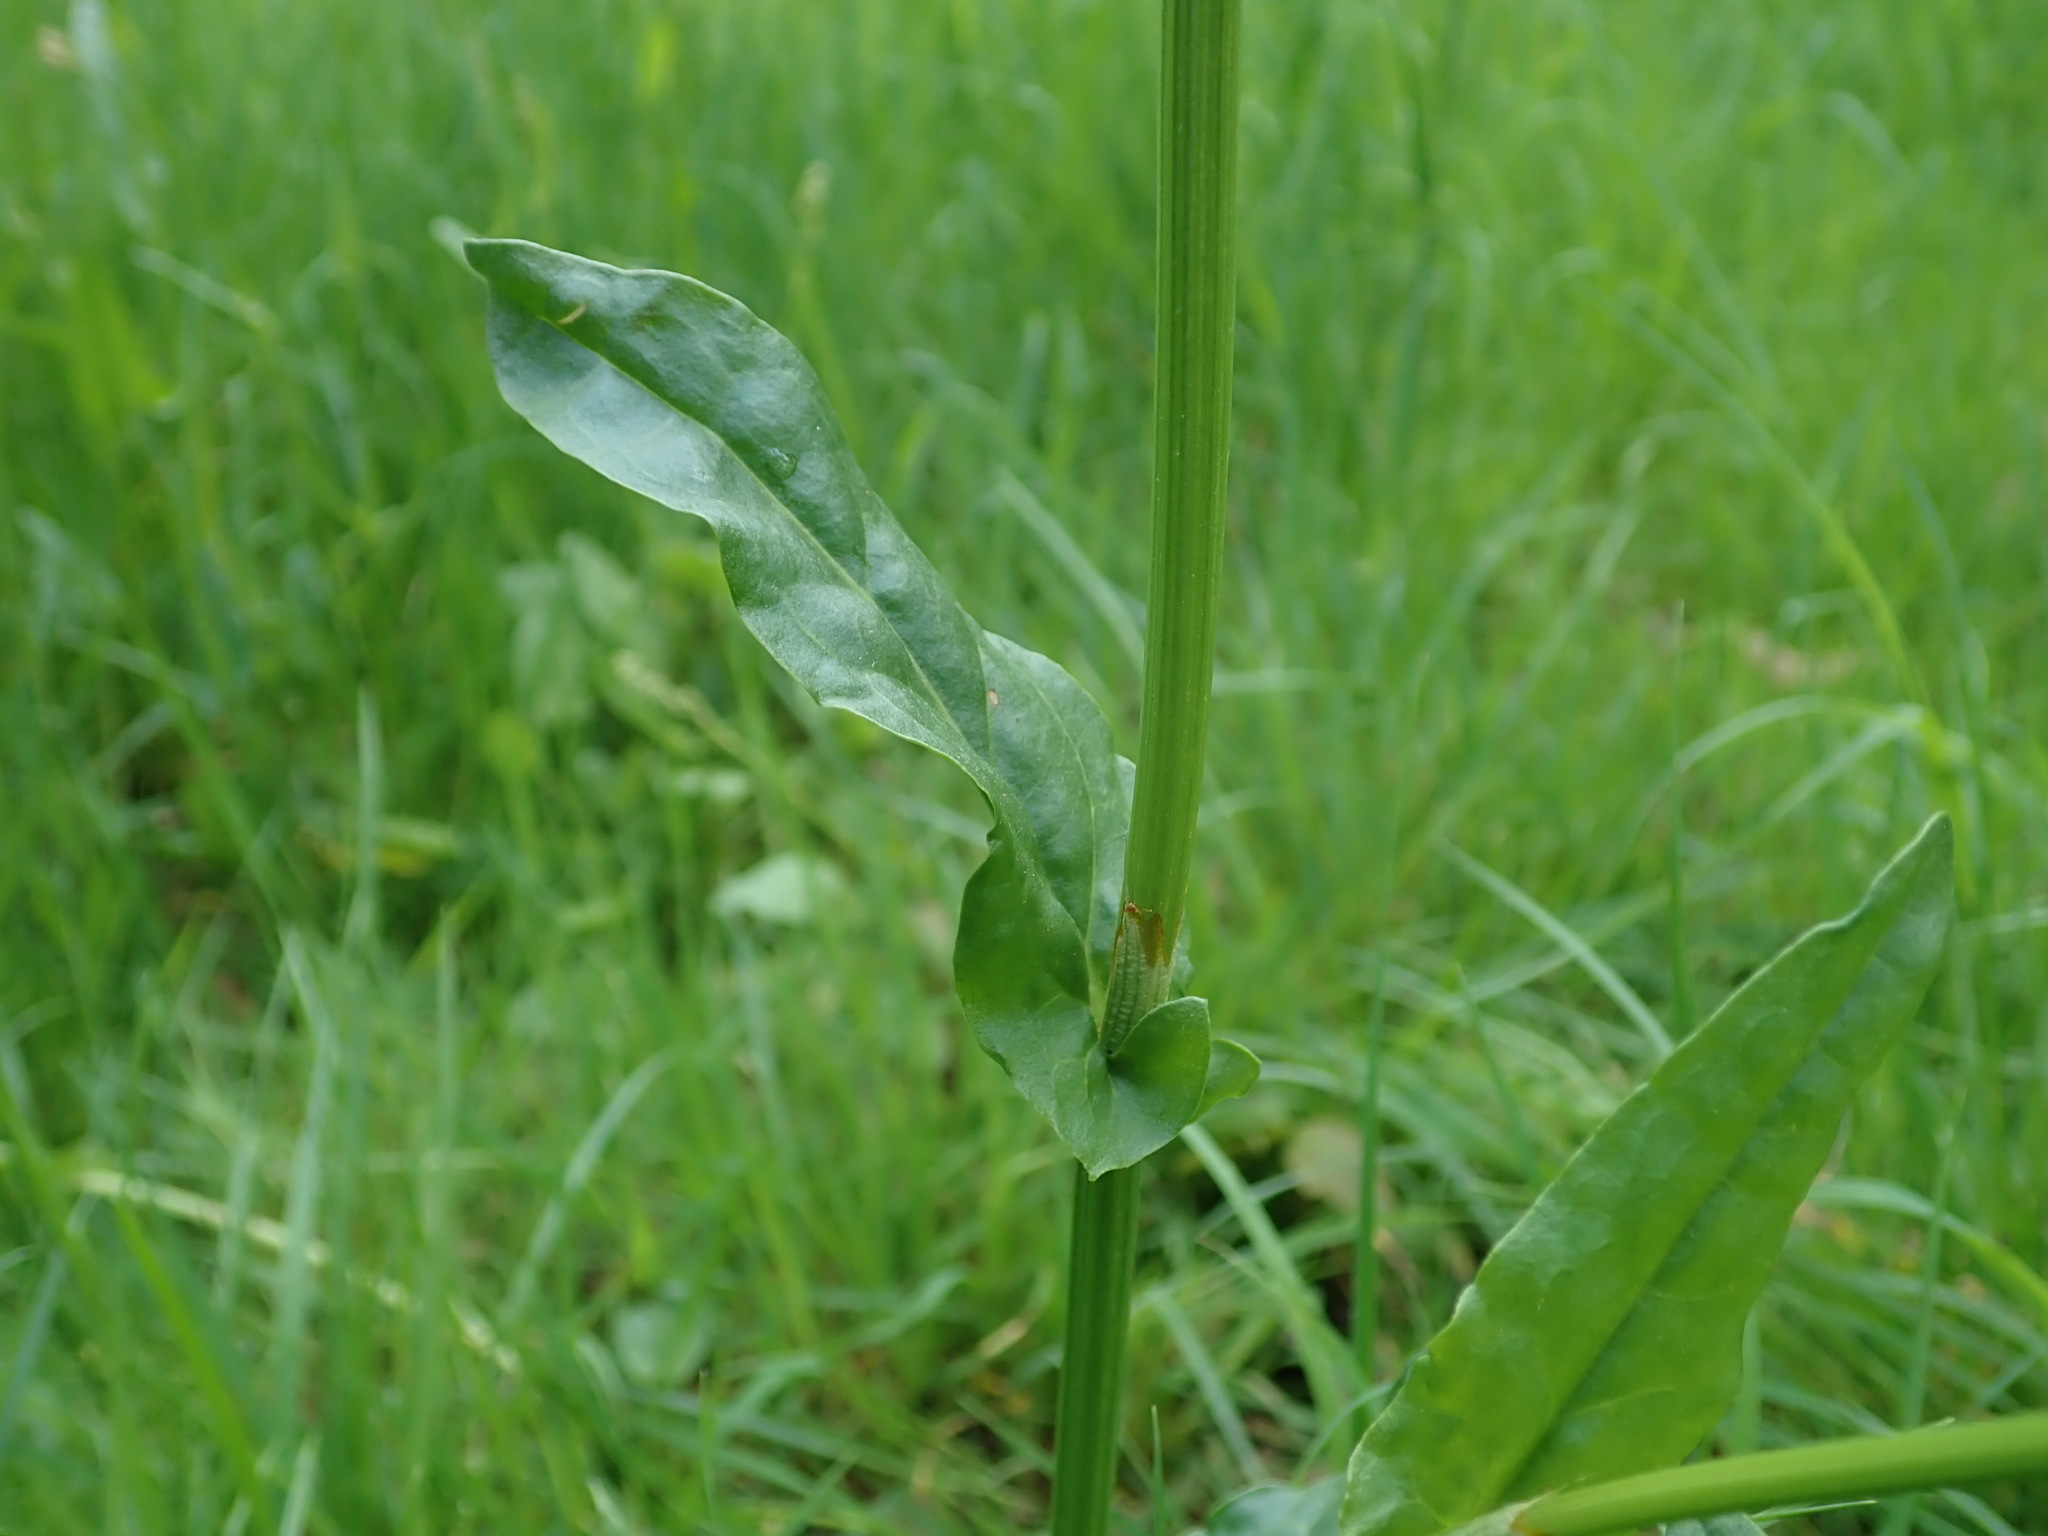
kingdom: Plantae
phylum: Tracheophyta
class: Magnoliopsida
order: Caryophyllales
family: Polygonaceae
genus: Rumex
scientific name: Rumex acetosa
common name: Garden sorrel
